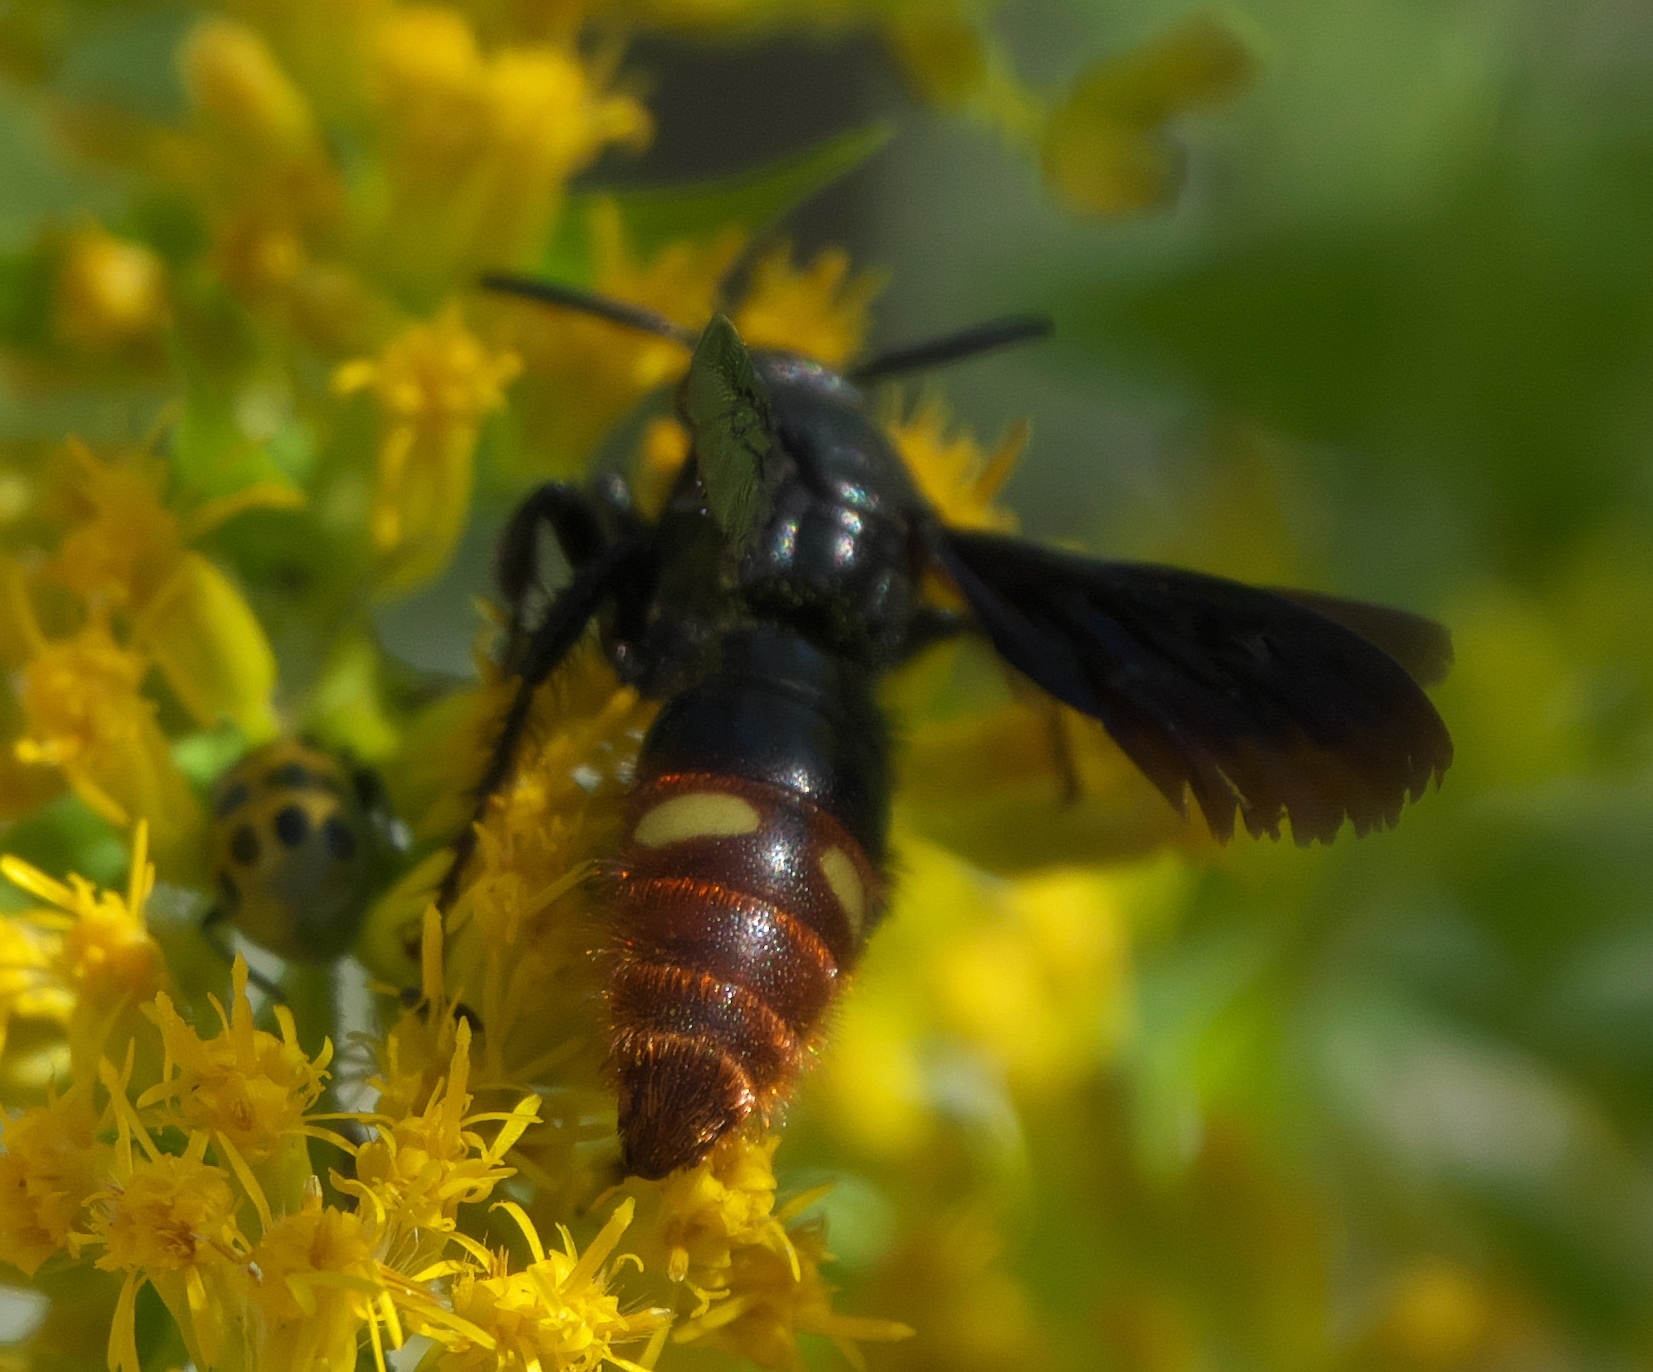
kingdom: Animalia
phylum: Arthropoda
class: Insecta
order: Hymenoptera
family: Scoliidae
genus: Scolia
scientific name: Scolia dubia
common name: Blue-winged scoliid wasp
